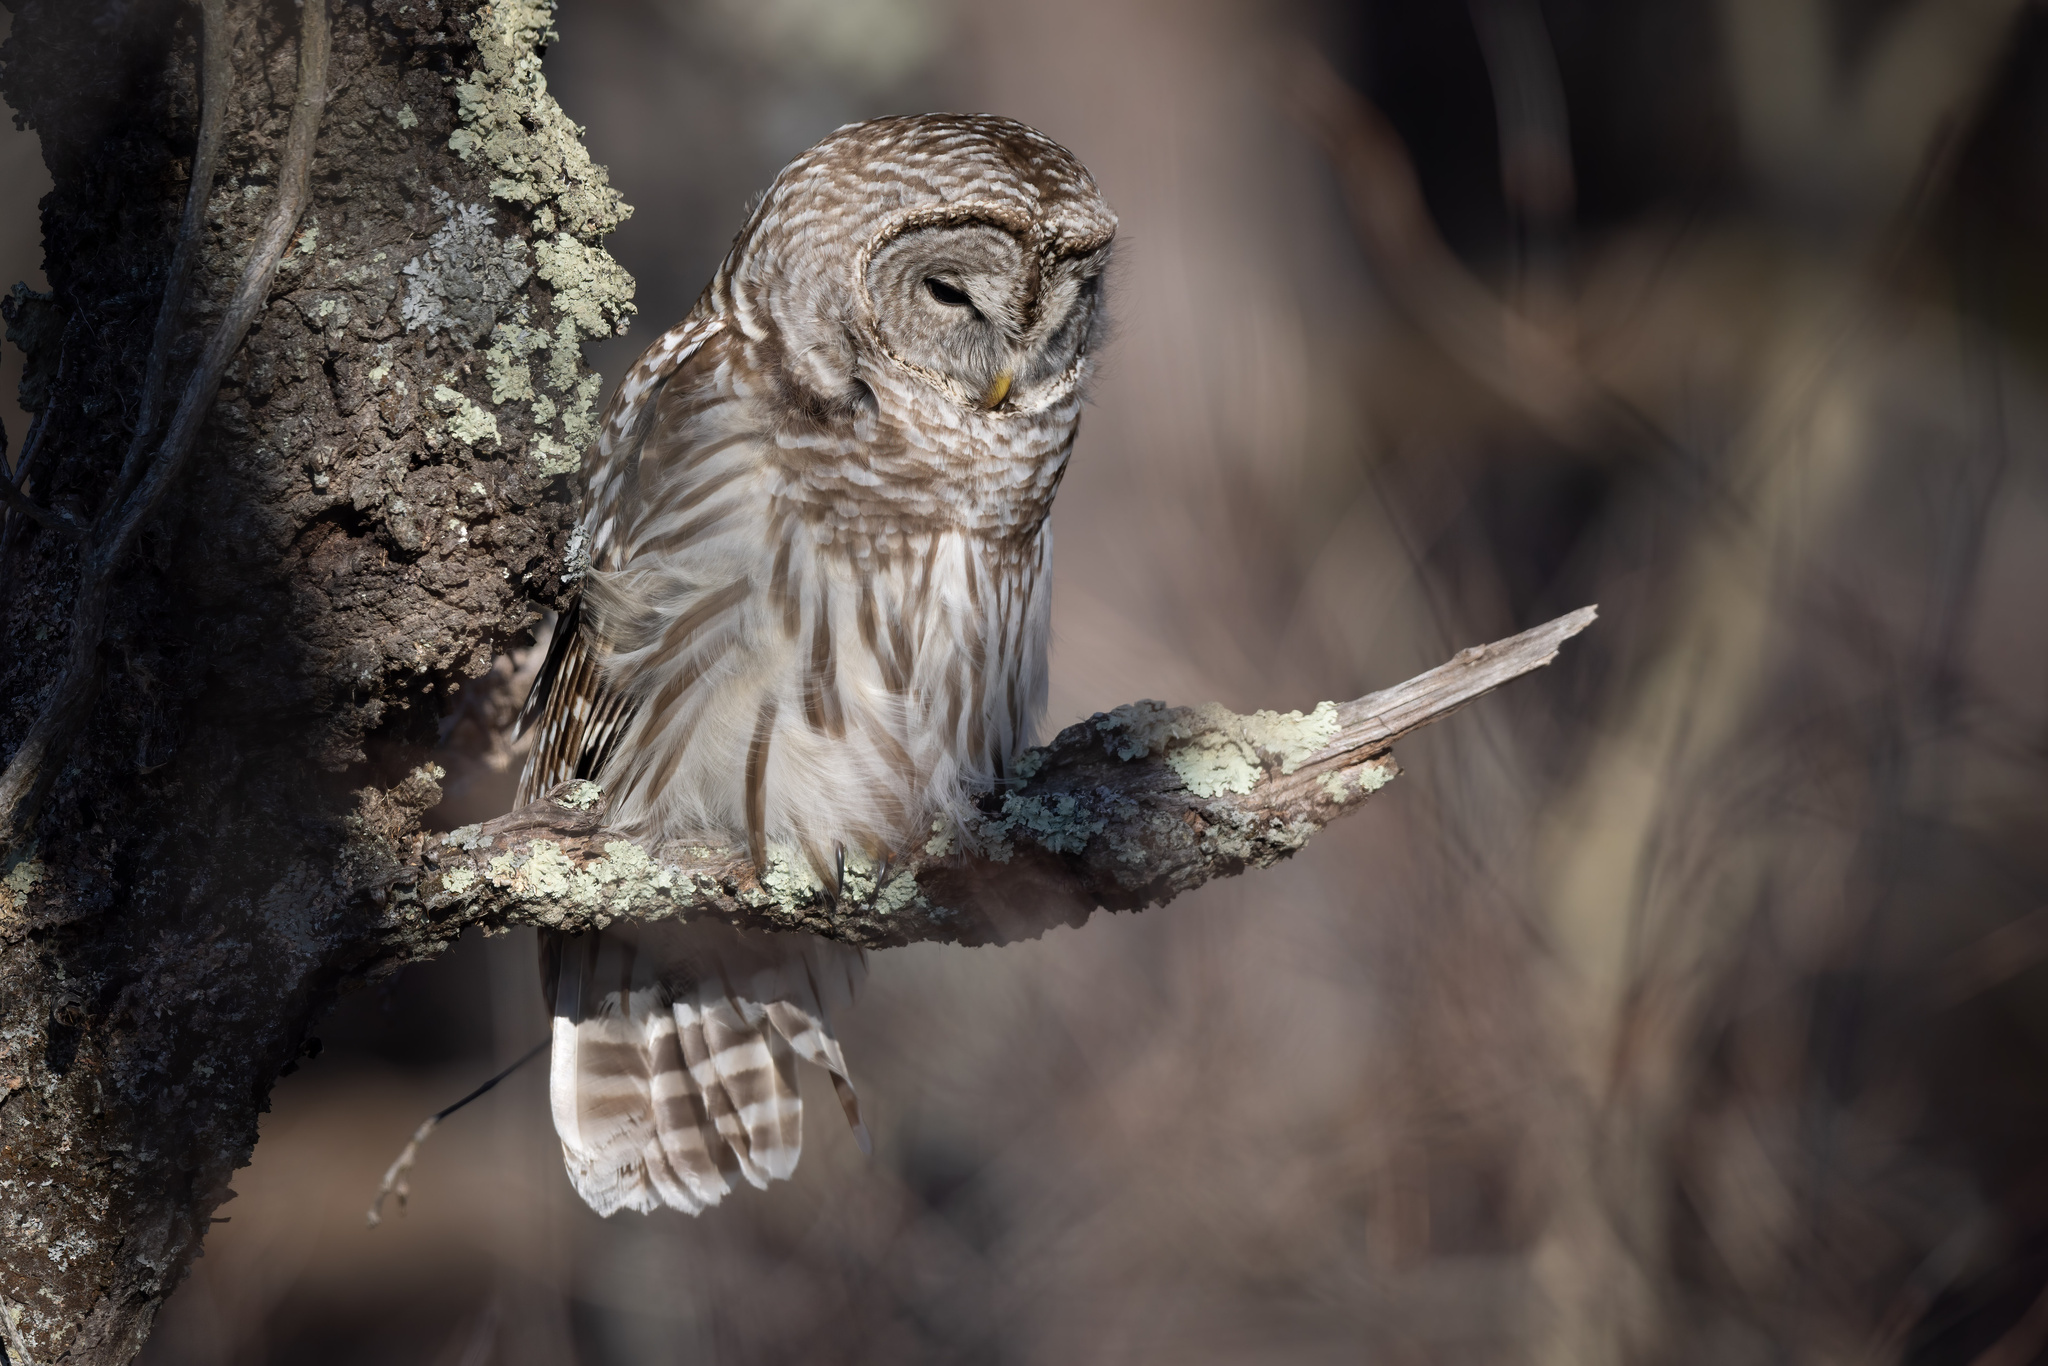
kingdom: Animalia
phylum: Chordata
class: Aves
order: Strigiformes
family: Strigidae
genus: Strix
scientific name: Strix varia
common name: Barred owl
